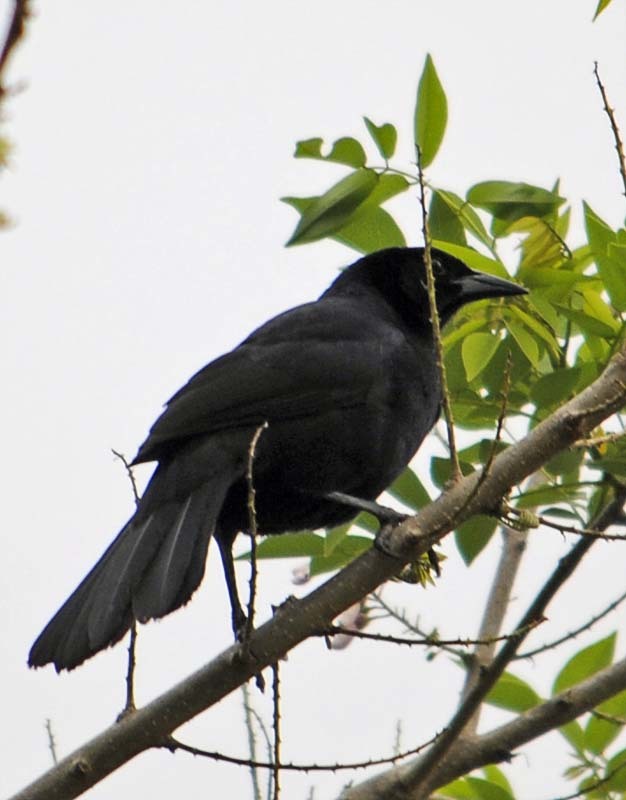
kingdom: Animalia
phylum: Chordata
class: Aves
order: Passeriformes
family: Icteridae
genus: Dives
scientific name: Dives dives
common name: Melodious blackbird
